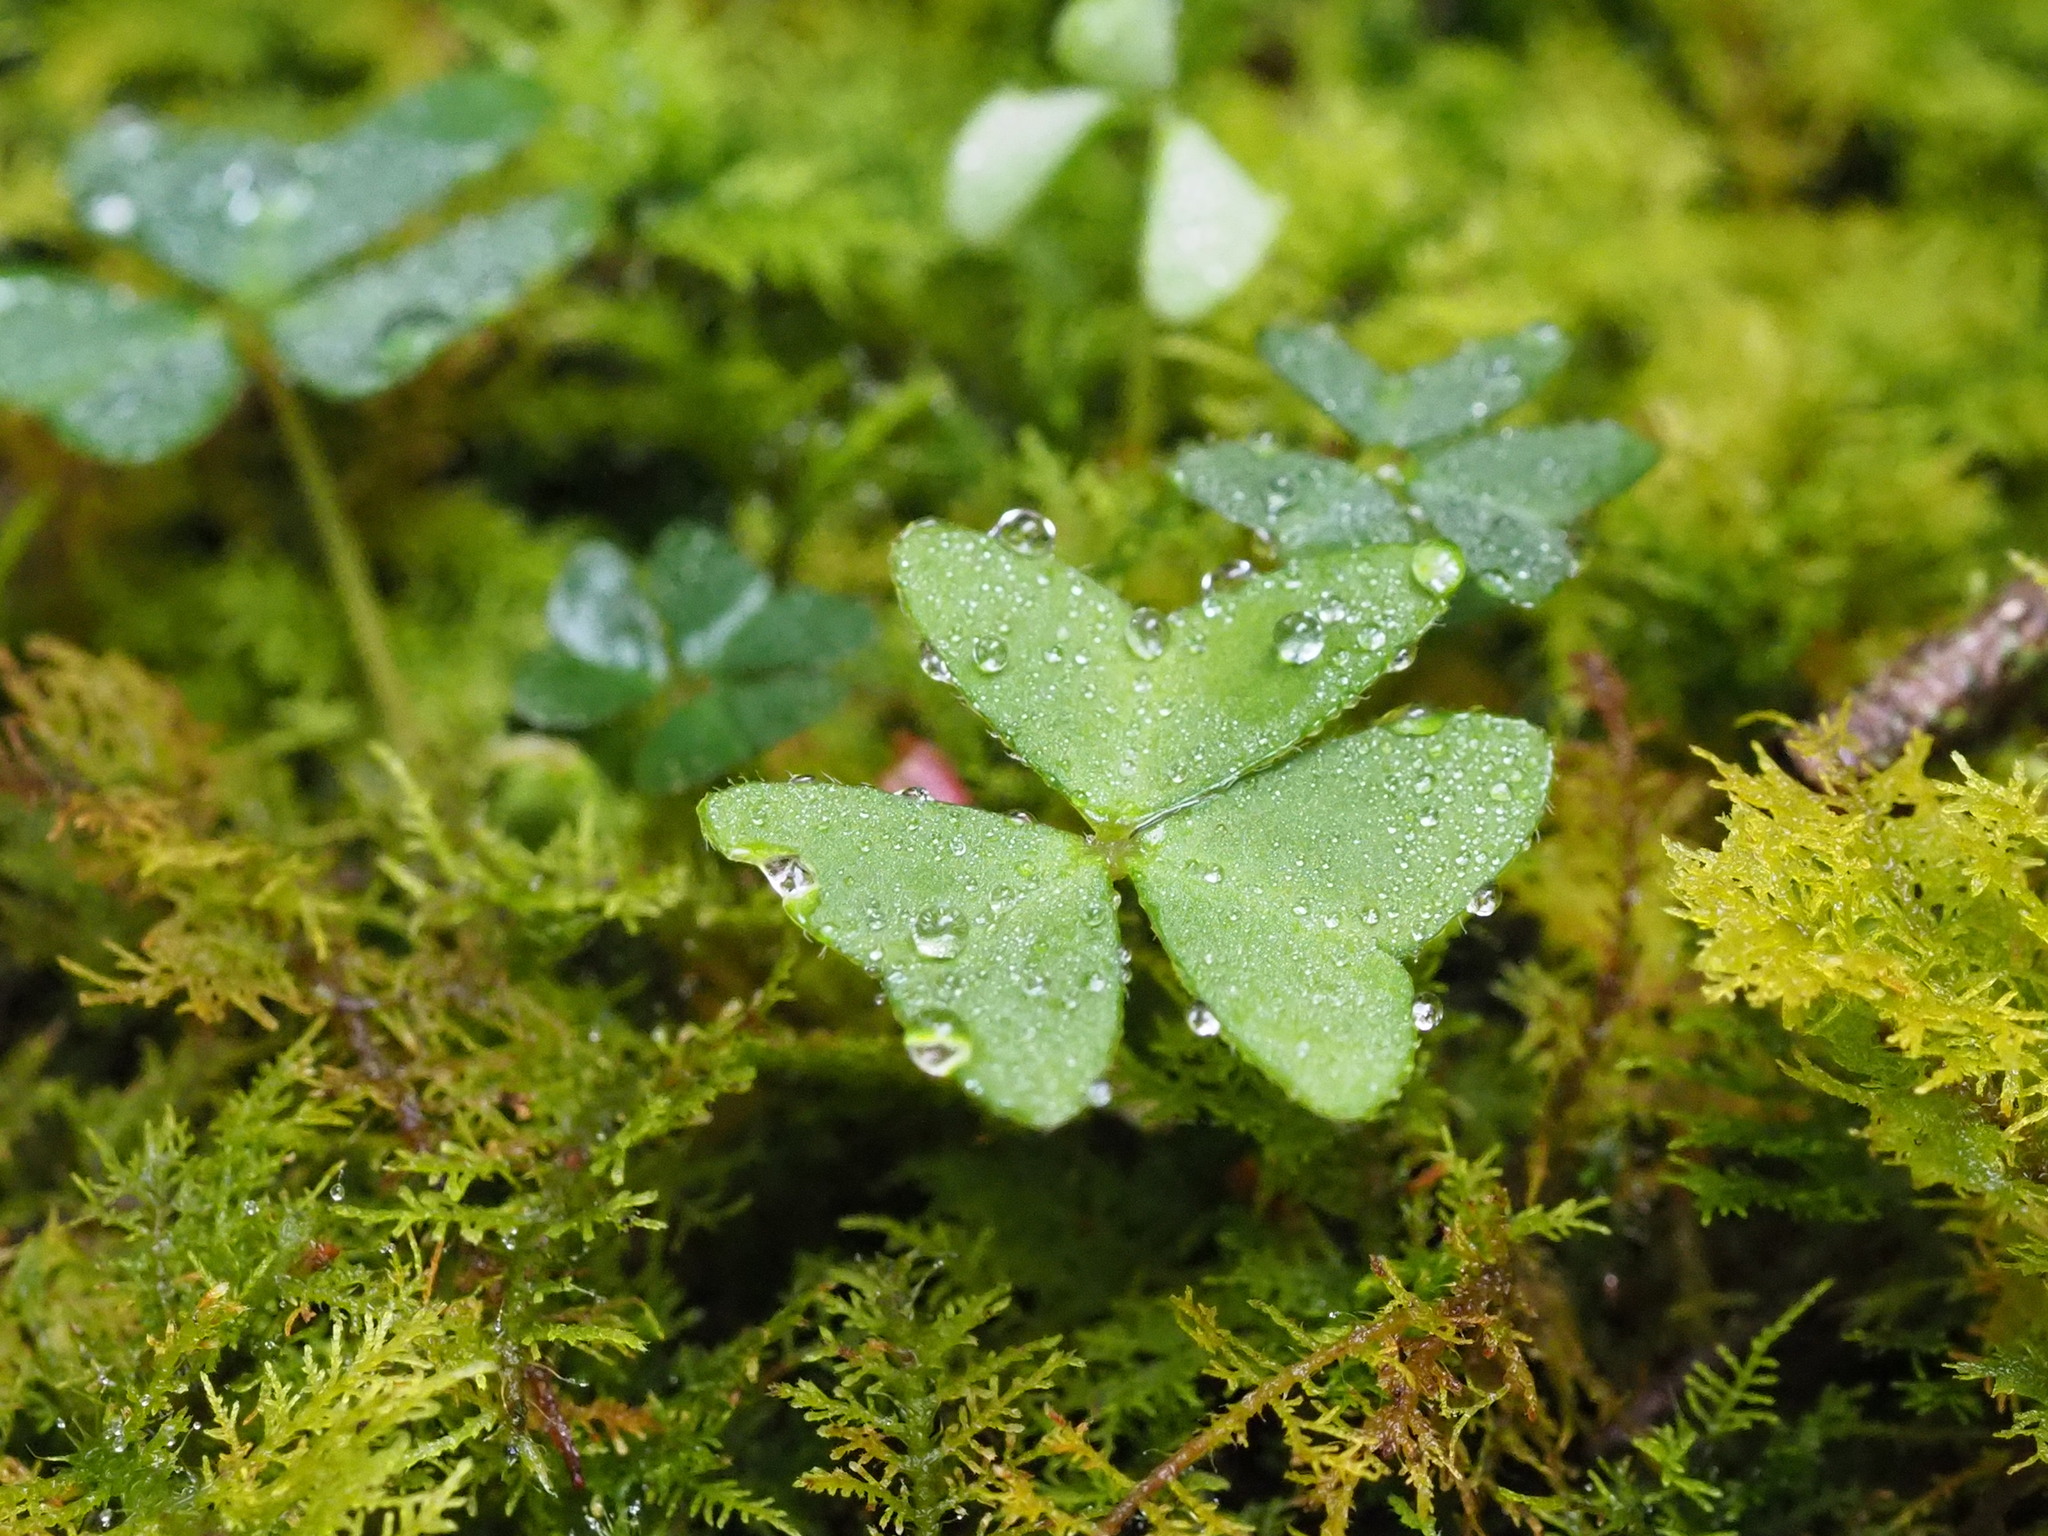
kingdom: Plantae
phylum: Tracheophyta
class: Magnoliopsida
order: Oxalidales
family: Oxalidaceae
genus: Oxalis
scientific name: Oxalis griffithii
